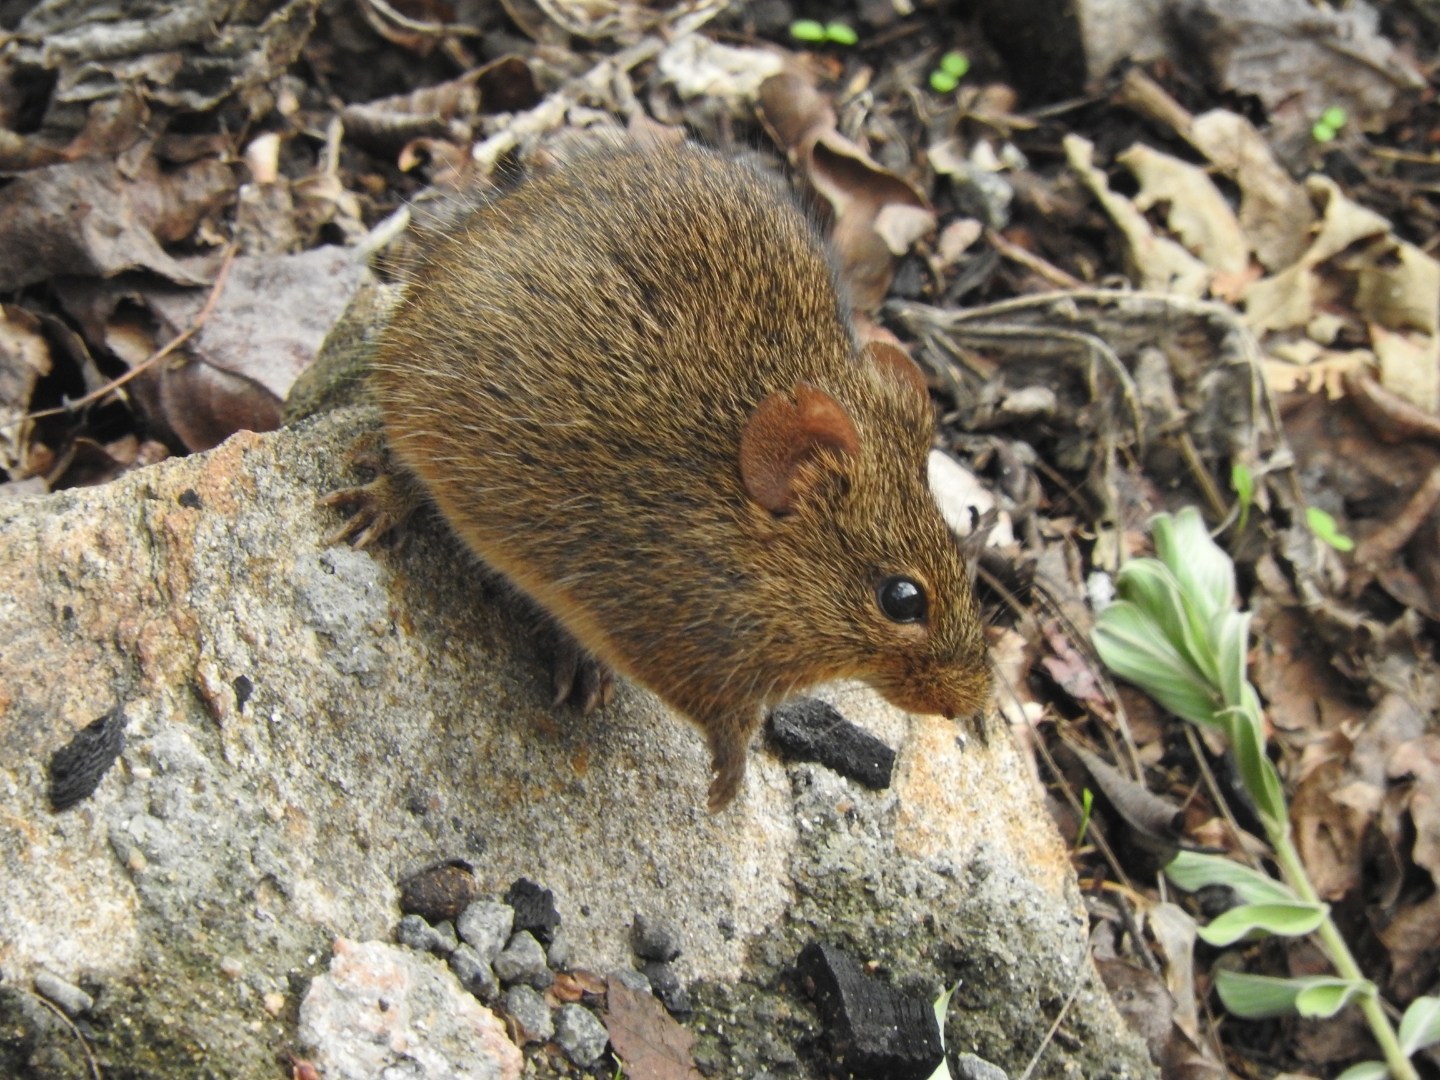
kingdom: Animalia
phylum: Chordata
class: Mammalia
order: Rodentia
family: Muridae
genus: Golunda
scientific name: Golunda ellioti
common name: Indian bush rat
